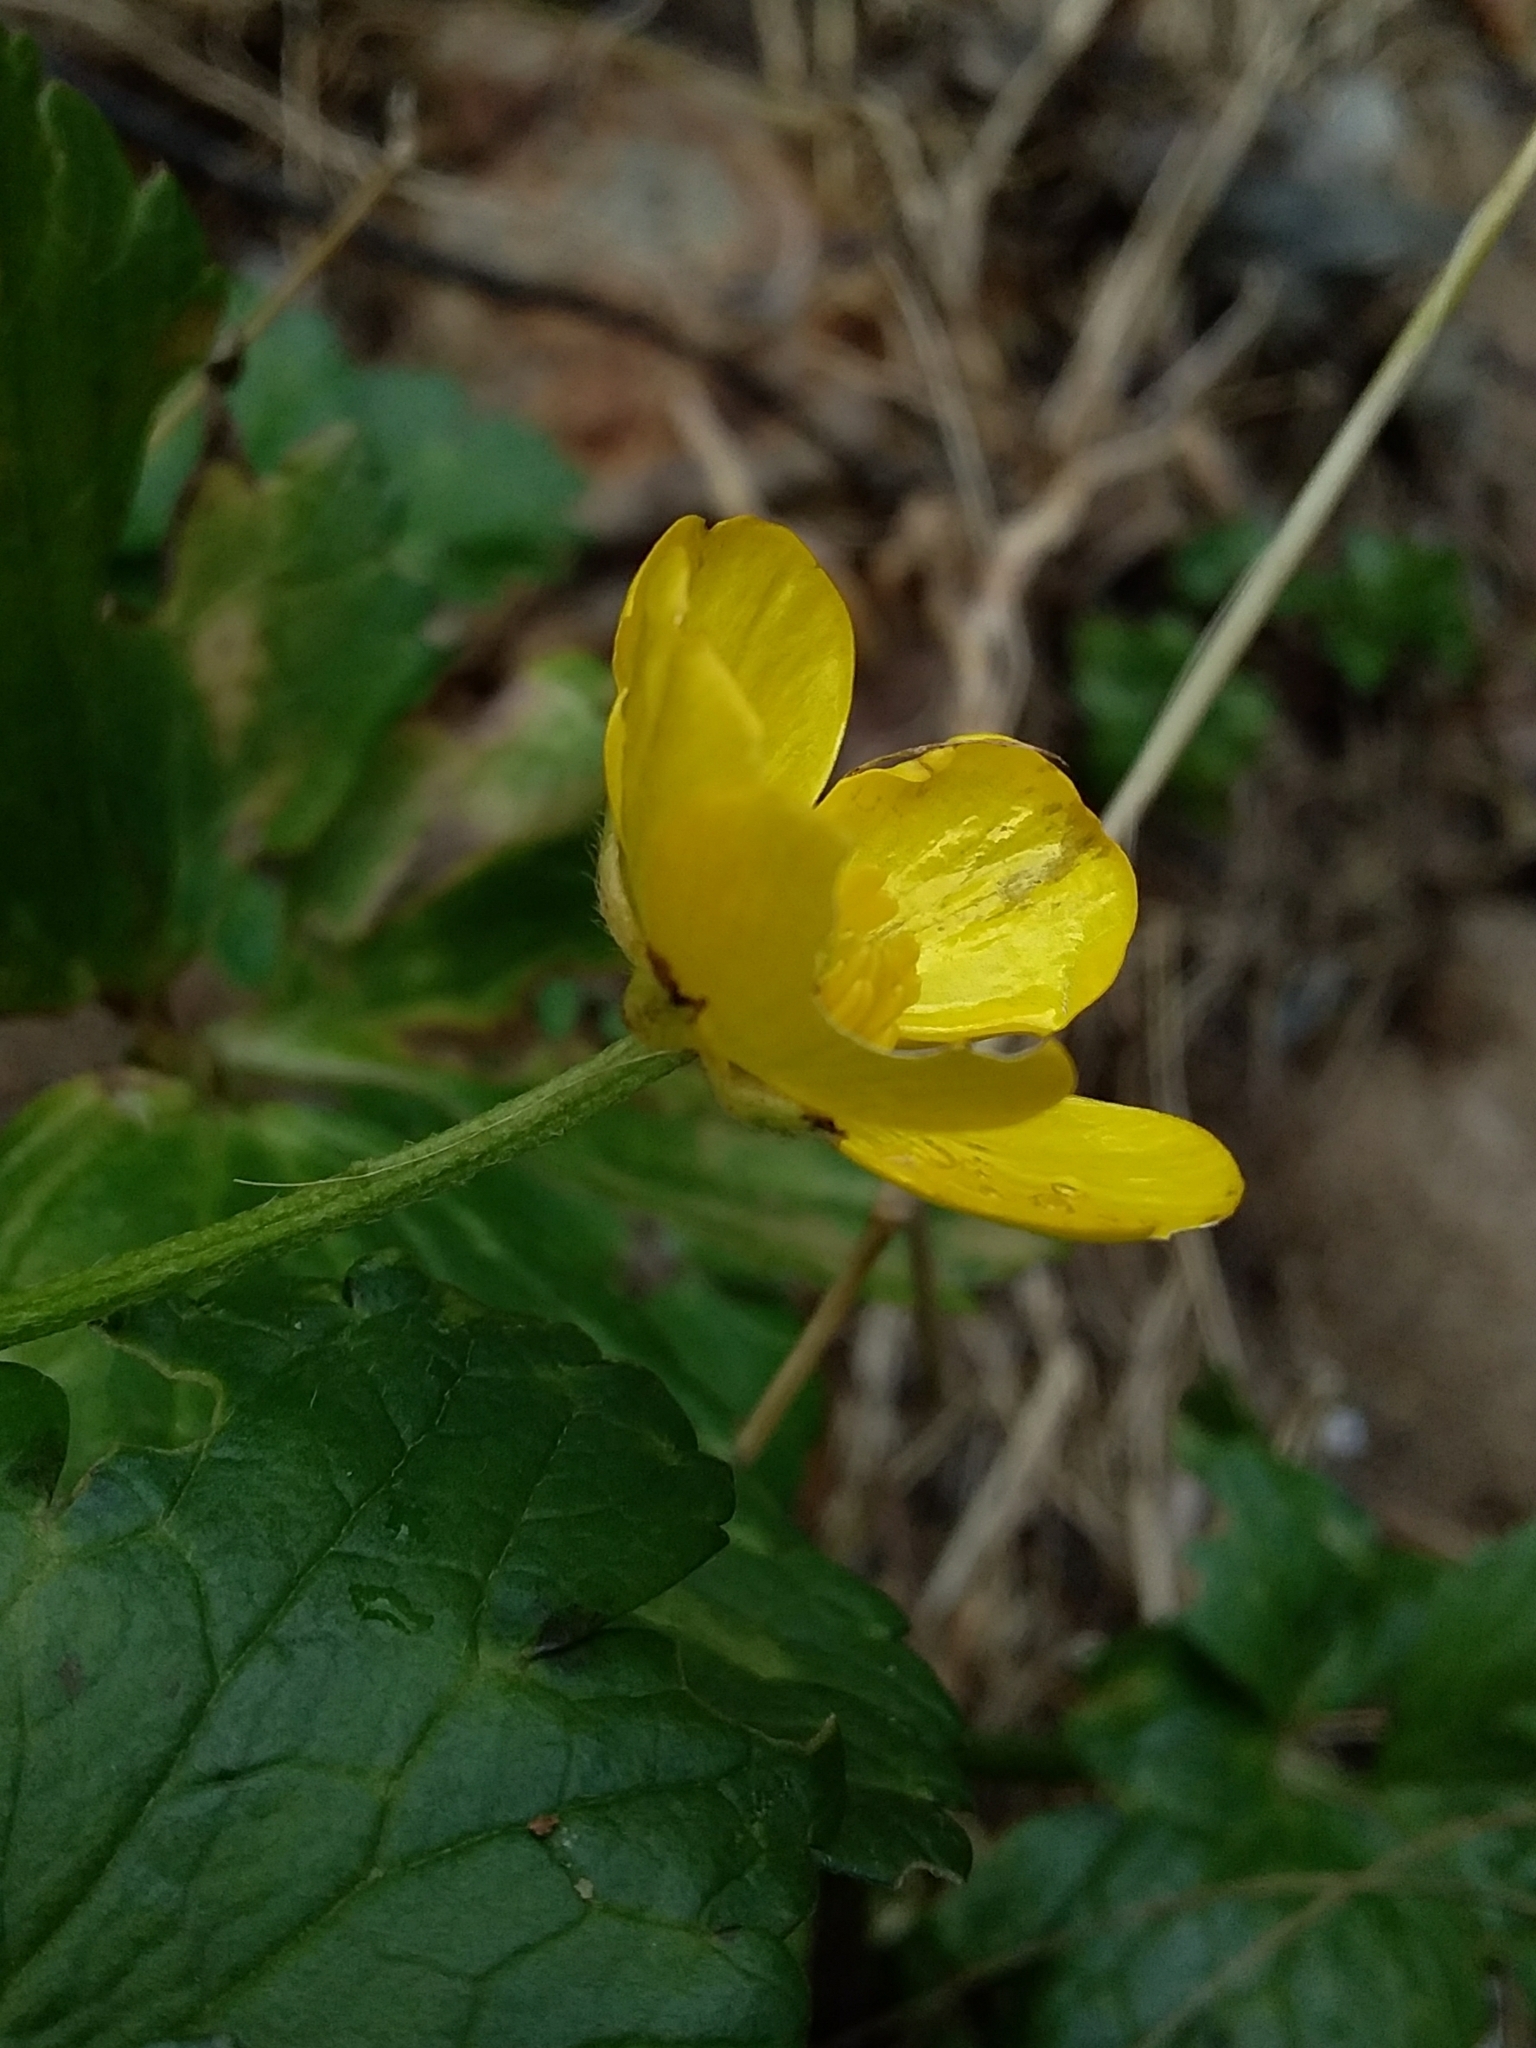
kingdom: Plantae
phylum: Tracheophyta
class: Magnoliopsida
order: Ranunculales
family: Ranunculaceae
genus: Ranunculus
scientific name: Ranunculus repens
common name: Creeping buttercup
